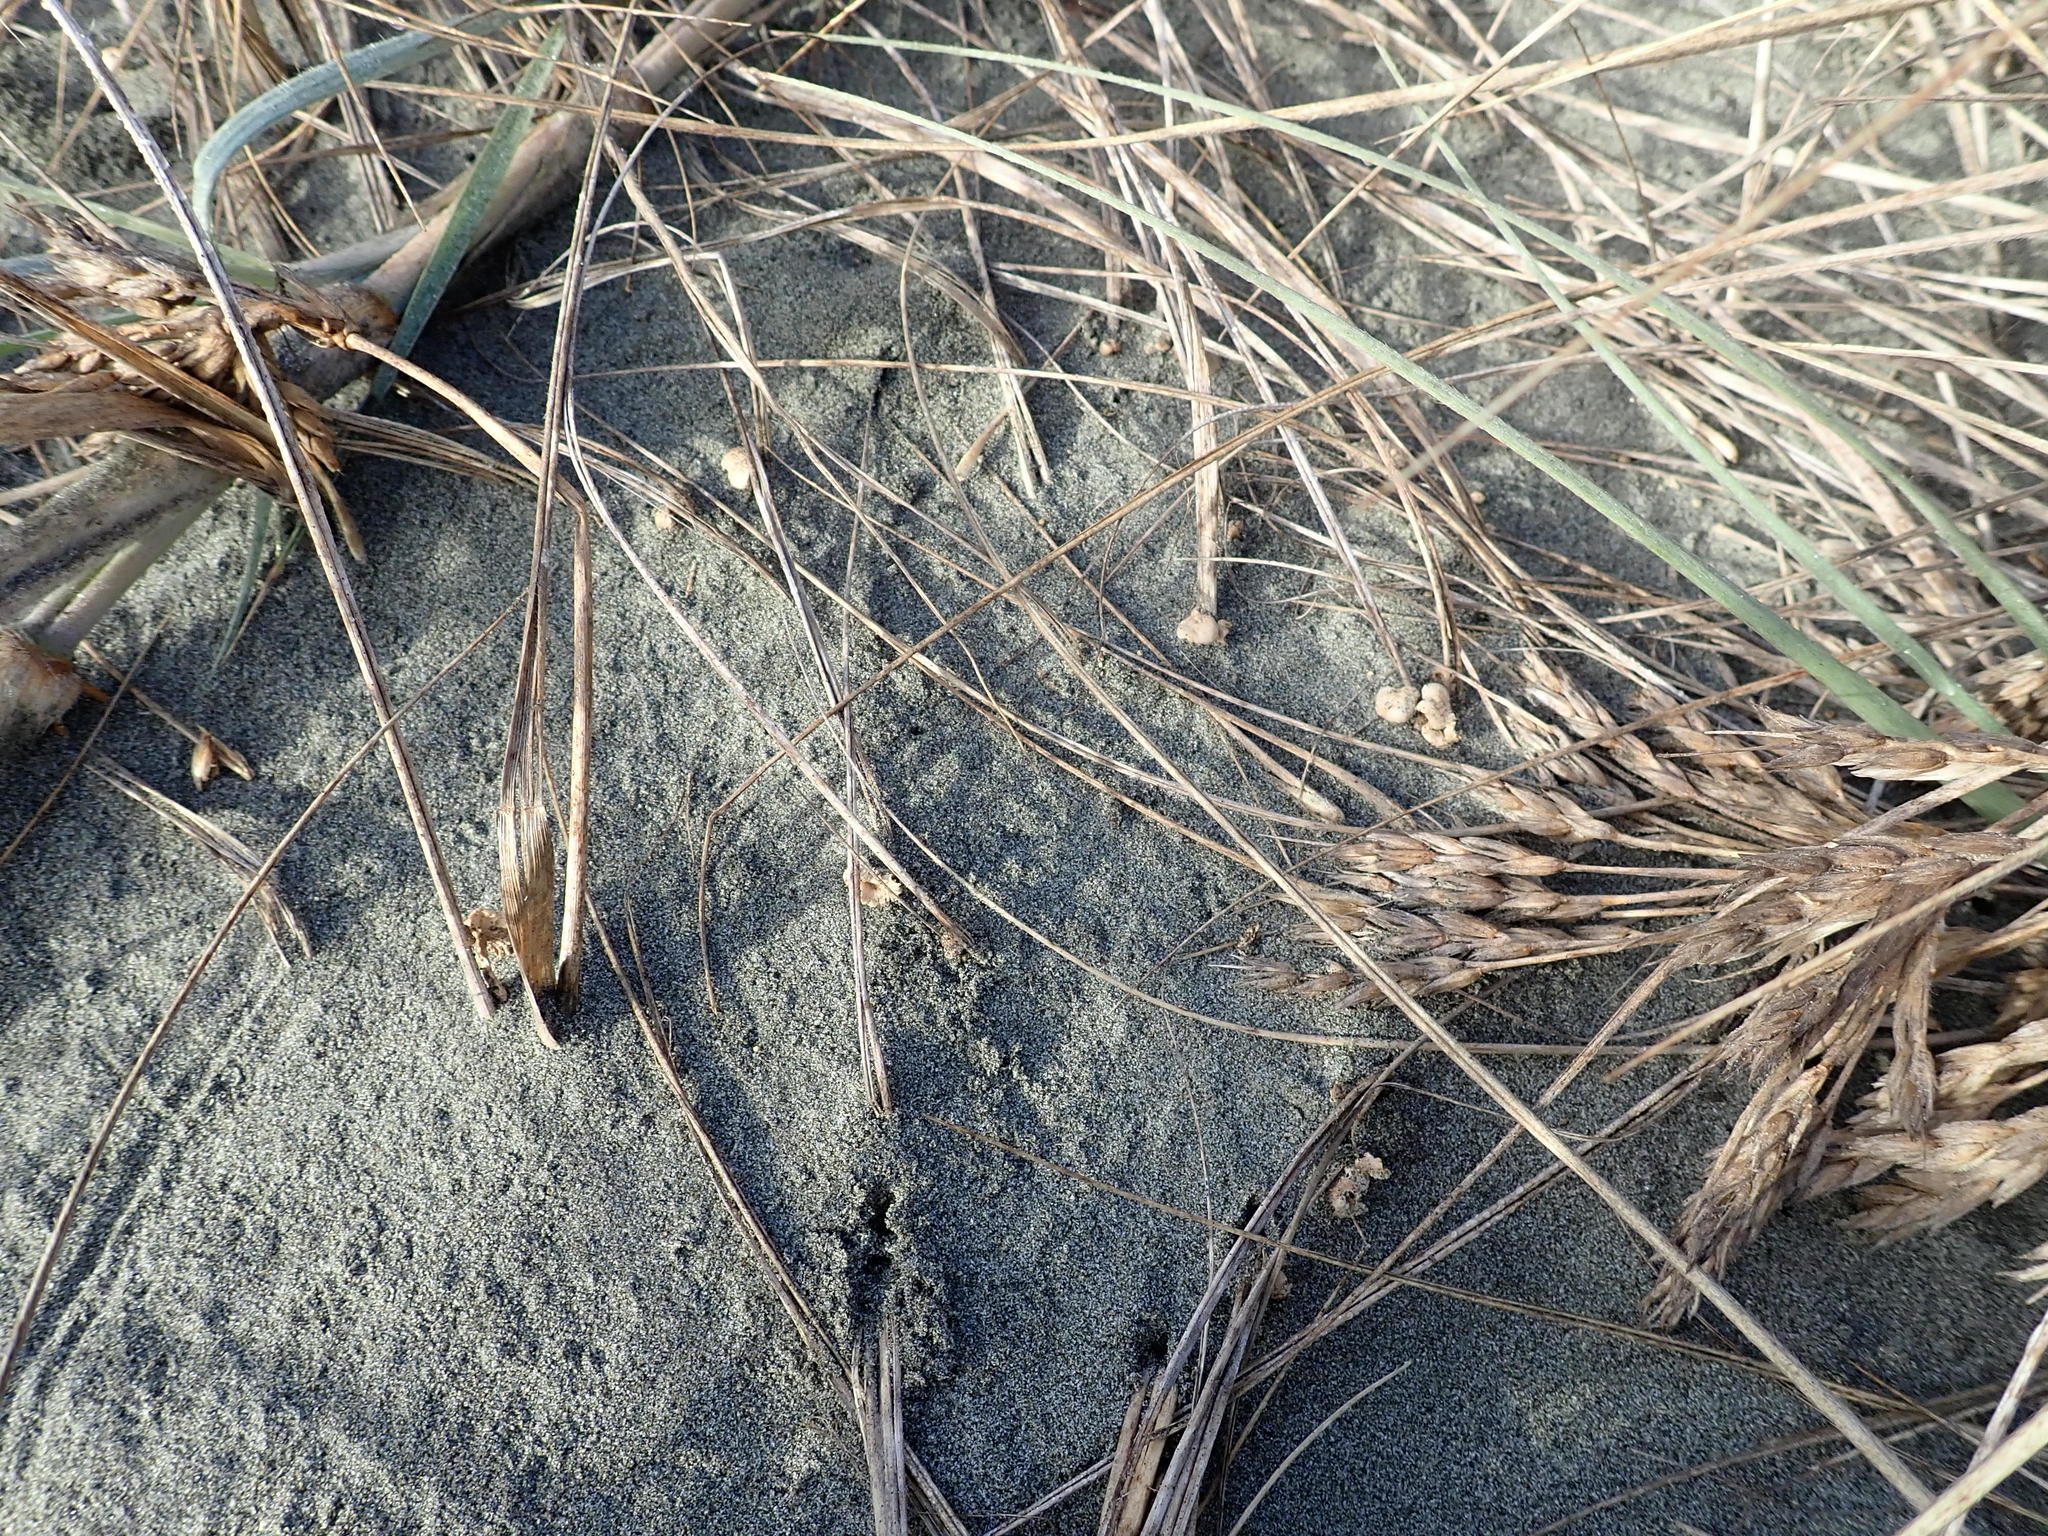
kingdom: Fungi
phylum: Basidiomycota
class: Agaricomycetes
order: Agaricales
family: Marasmiaceae
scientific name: Marasmiaceae
